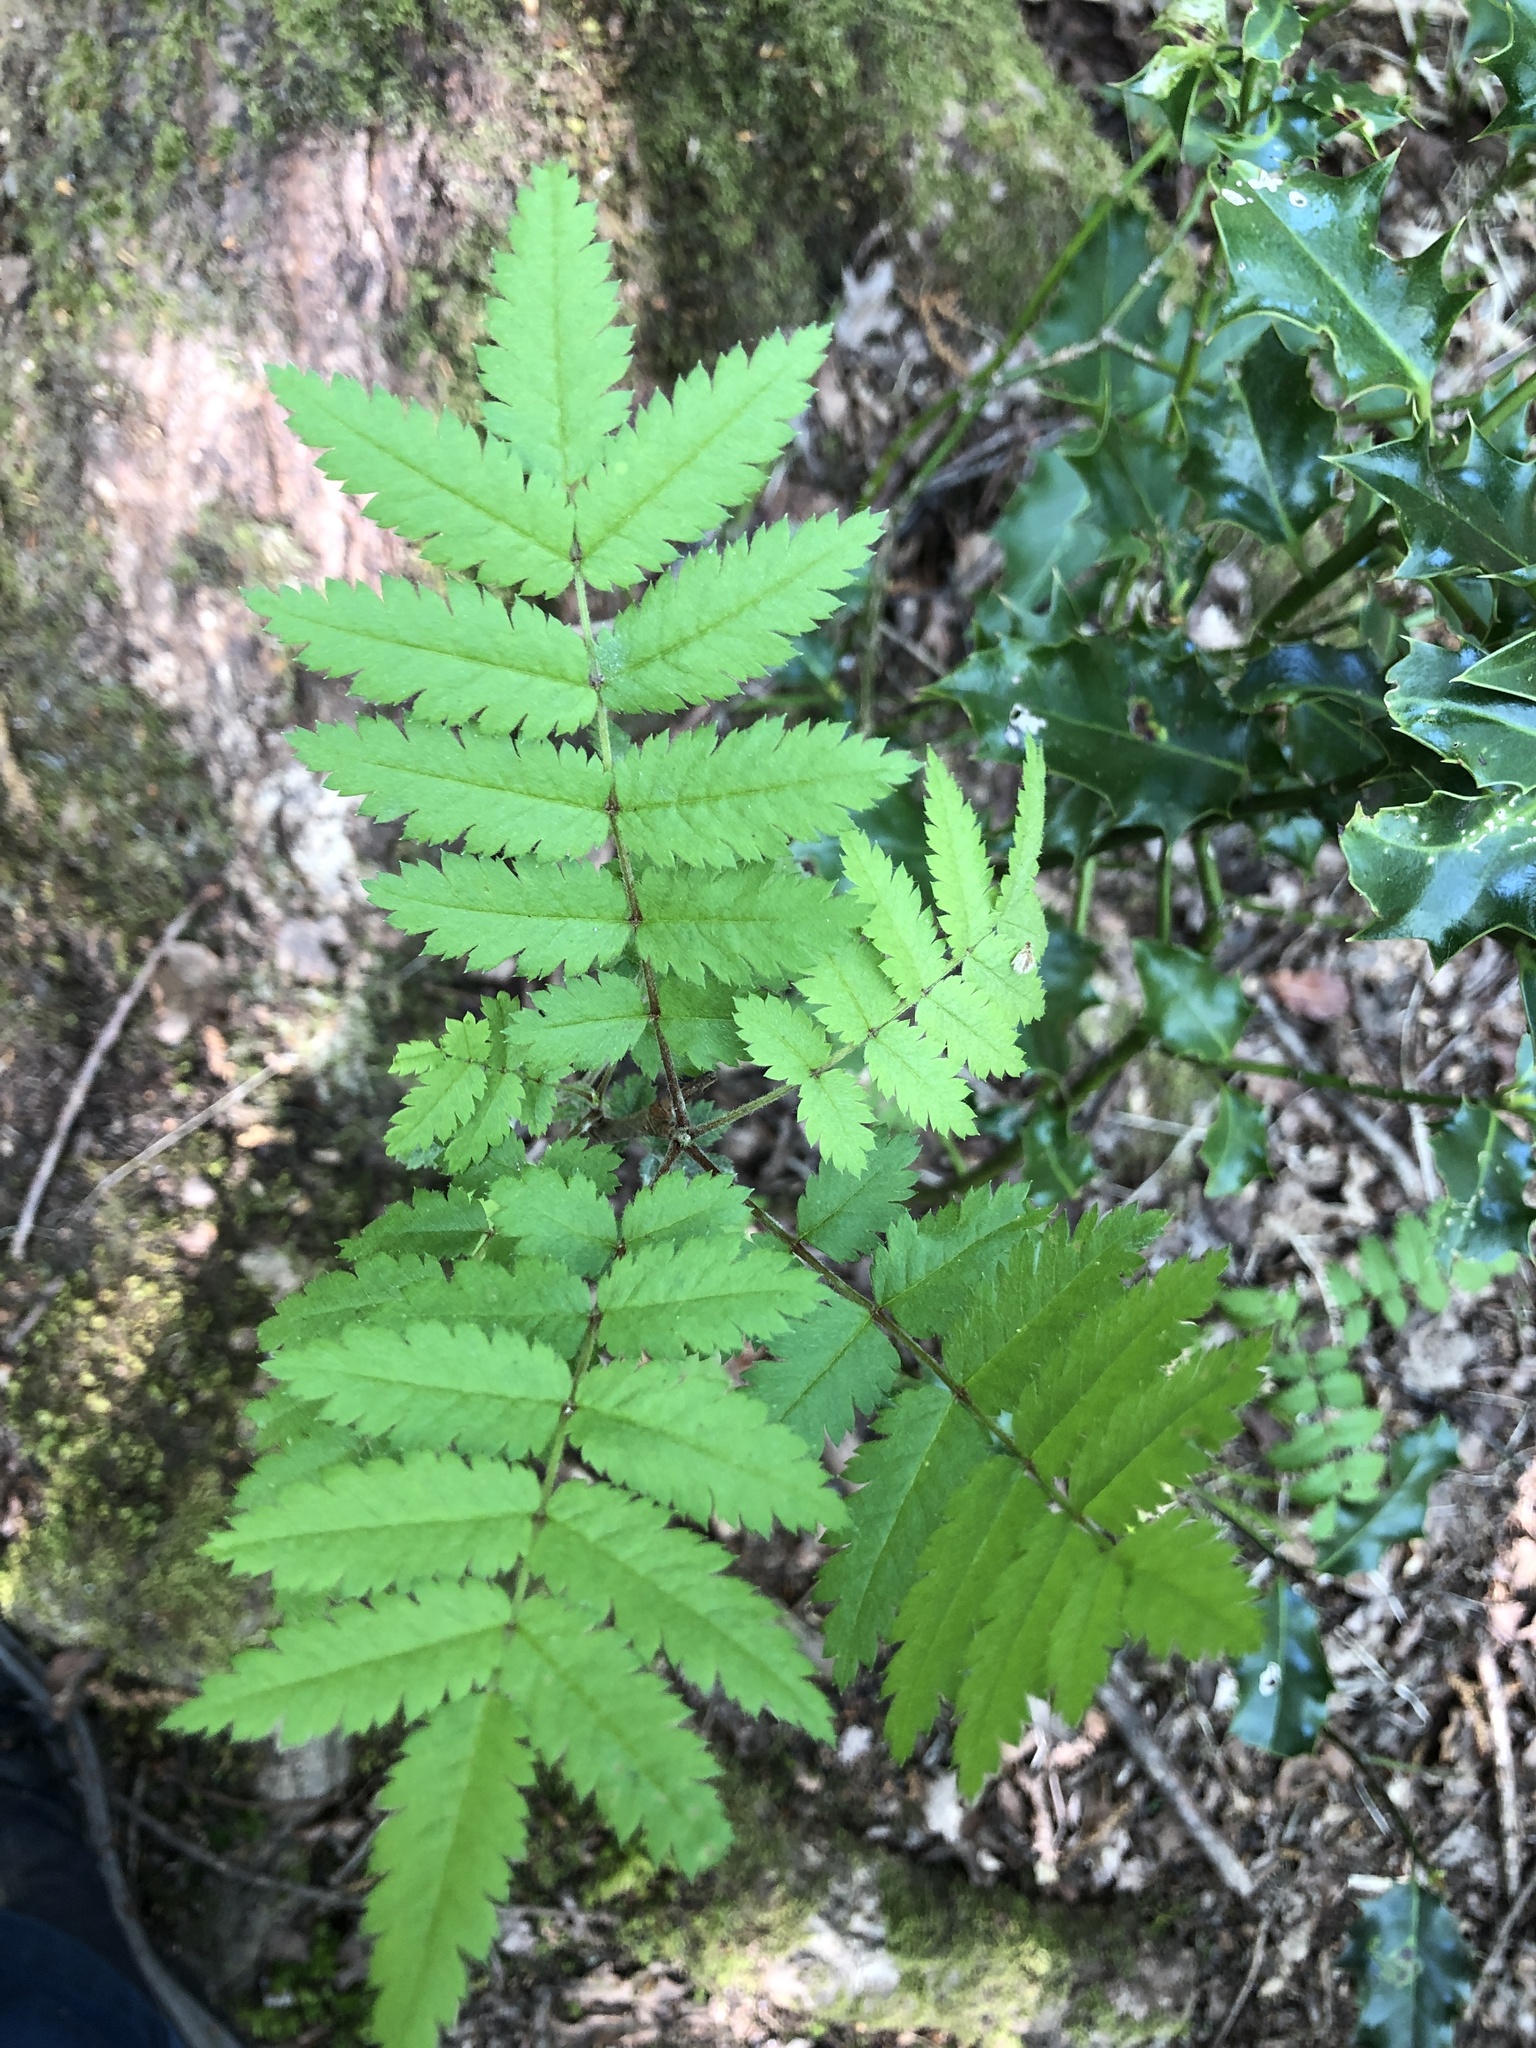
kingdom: Plantae
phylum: Tracheophyta
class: Magnoliopsida
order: Rosales
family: Rosaceae
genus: Sorbus
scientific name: Sorbus aucuparia
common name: Rowan
